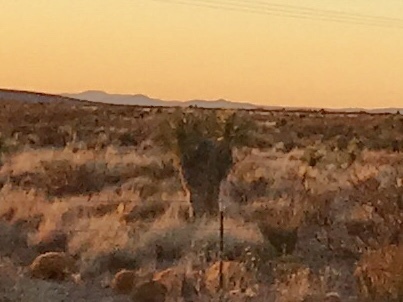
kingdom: Plantae
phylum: Tracheophyta
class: Liliopsida
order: Asparagales
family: Asparagaceae
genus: Yucca
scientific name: Yucca elata
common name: Palmella
